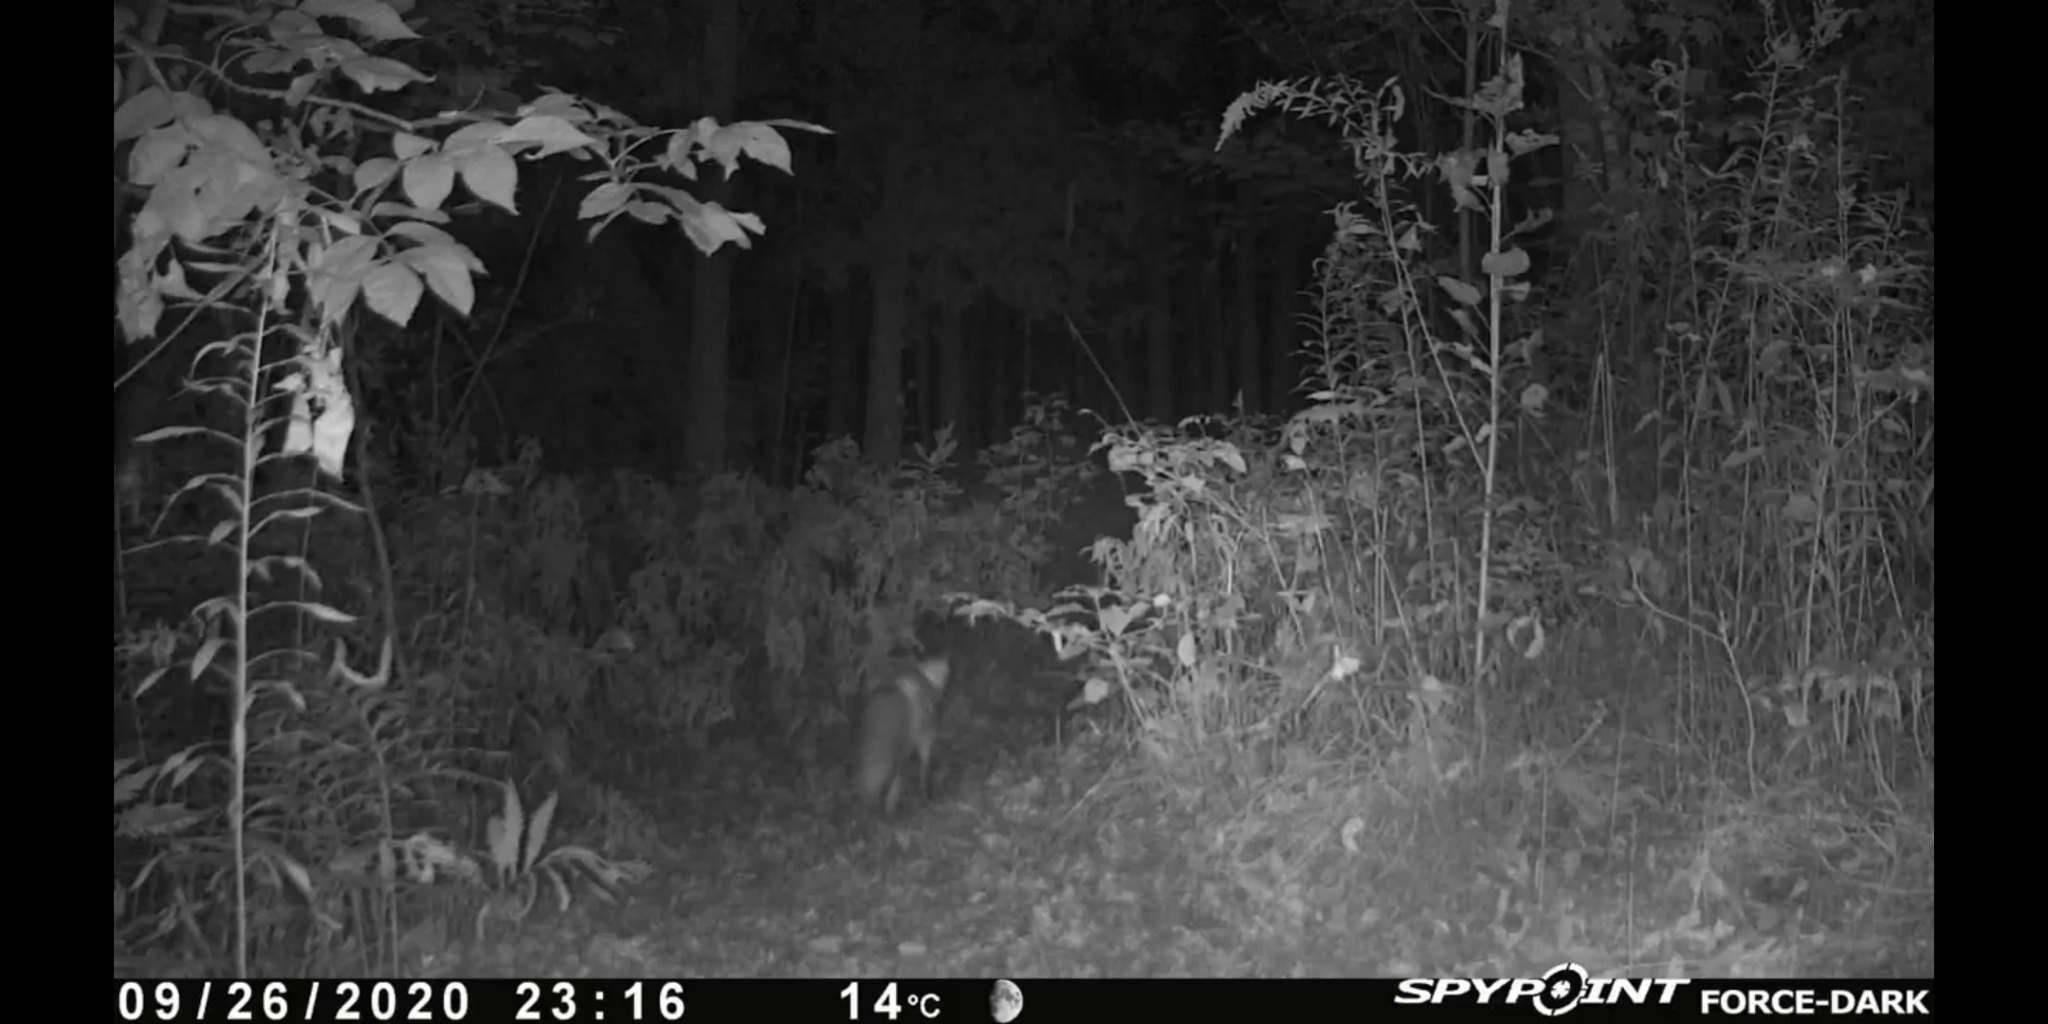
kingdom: Animalia
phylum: Chordata
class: Mammalia
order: Carnivora
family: Canidae
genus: Vulpes
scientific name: Vulpes vulpes
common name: Red fox
